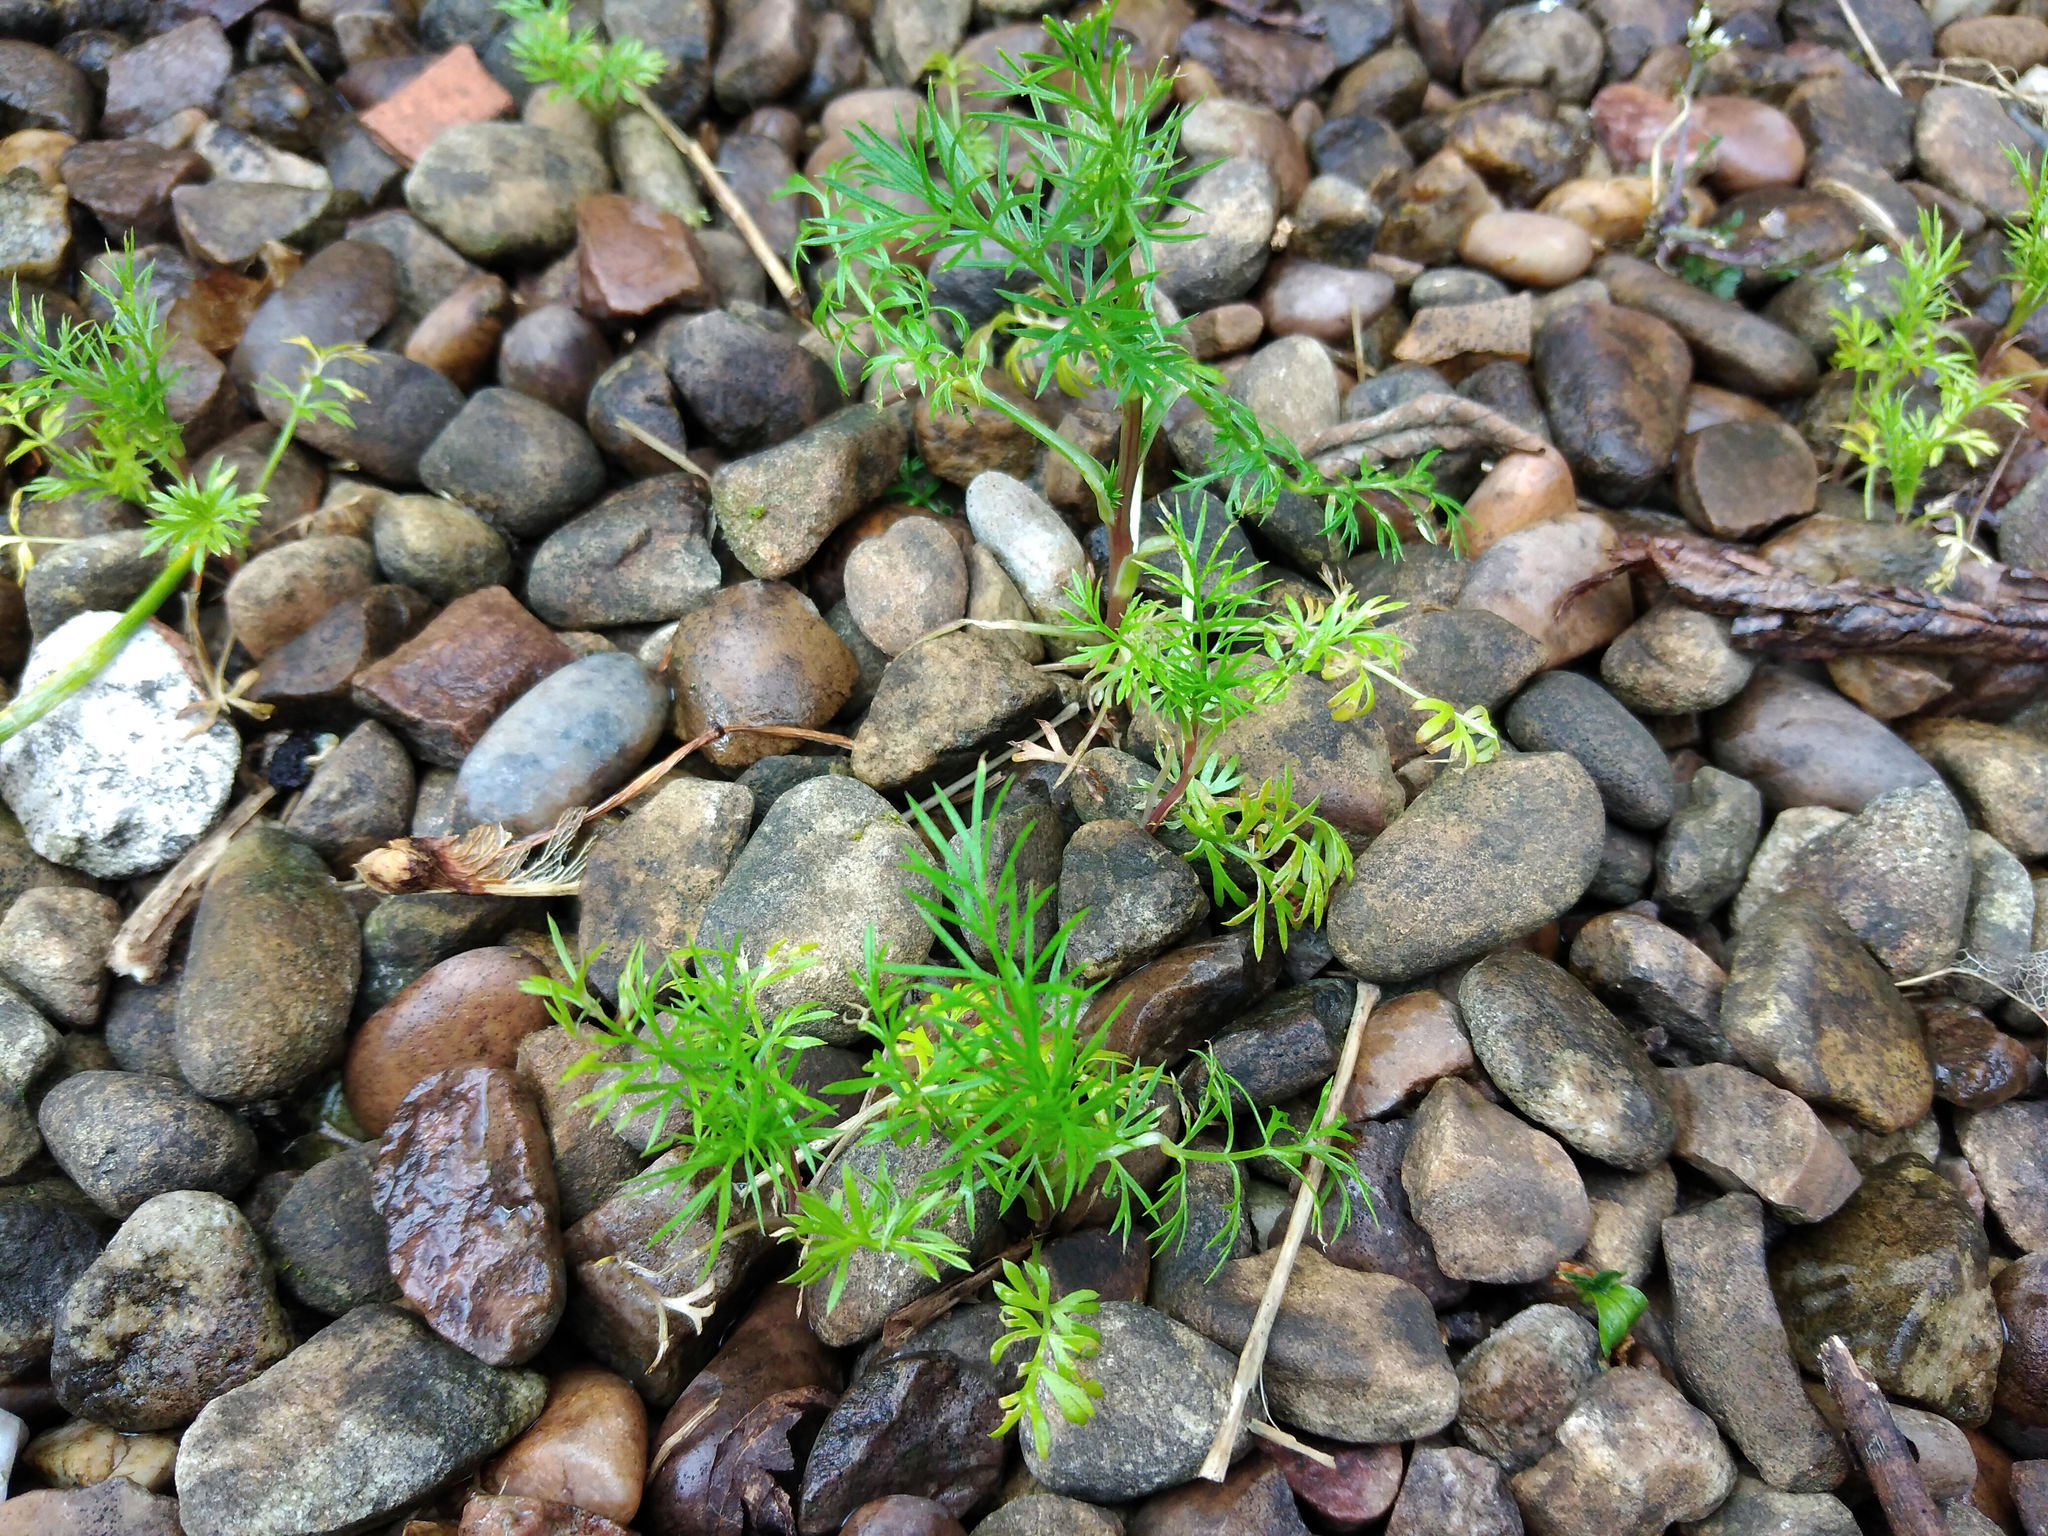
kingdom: Plantae
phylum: Tracheophyta
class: Magnoliopsida
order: Ranunculales
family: Ranunculaceae
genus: Nigella
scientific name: Nigella damascena
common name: Love-in-a-mist
